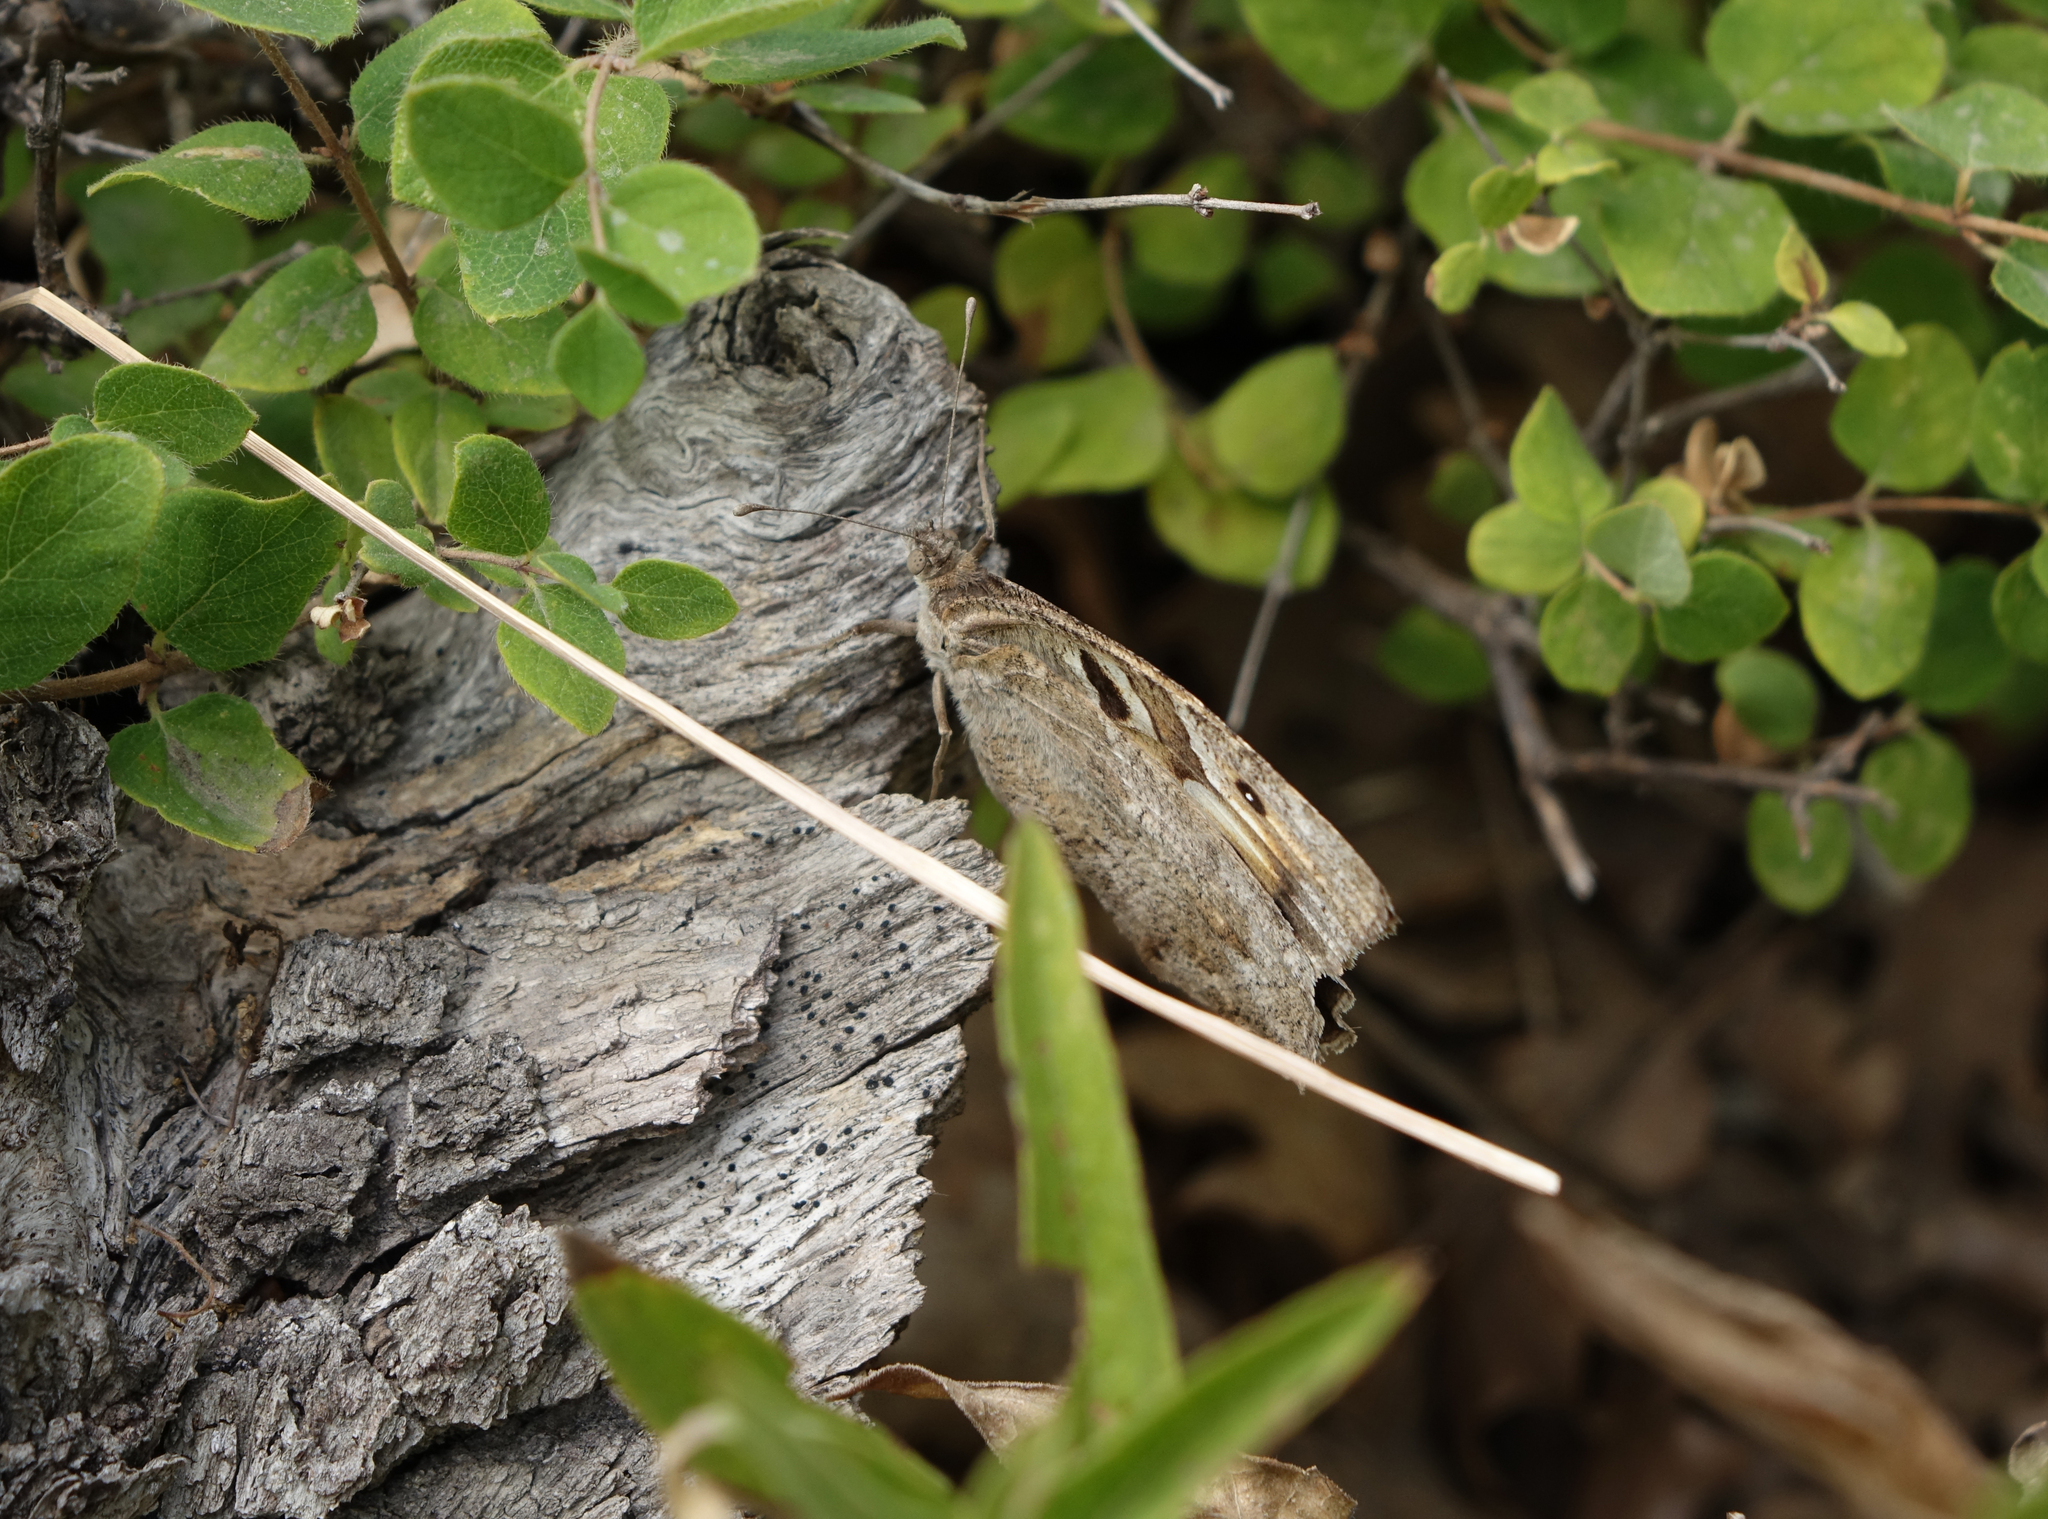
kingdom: Animalia
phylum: Arthropoda
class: Insecta
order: Lepidoptera
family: Nymphalidae
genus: Satyrus
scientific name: Satyrus briseis
